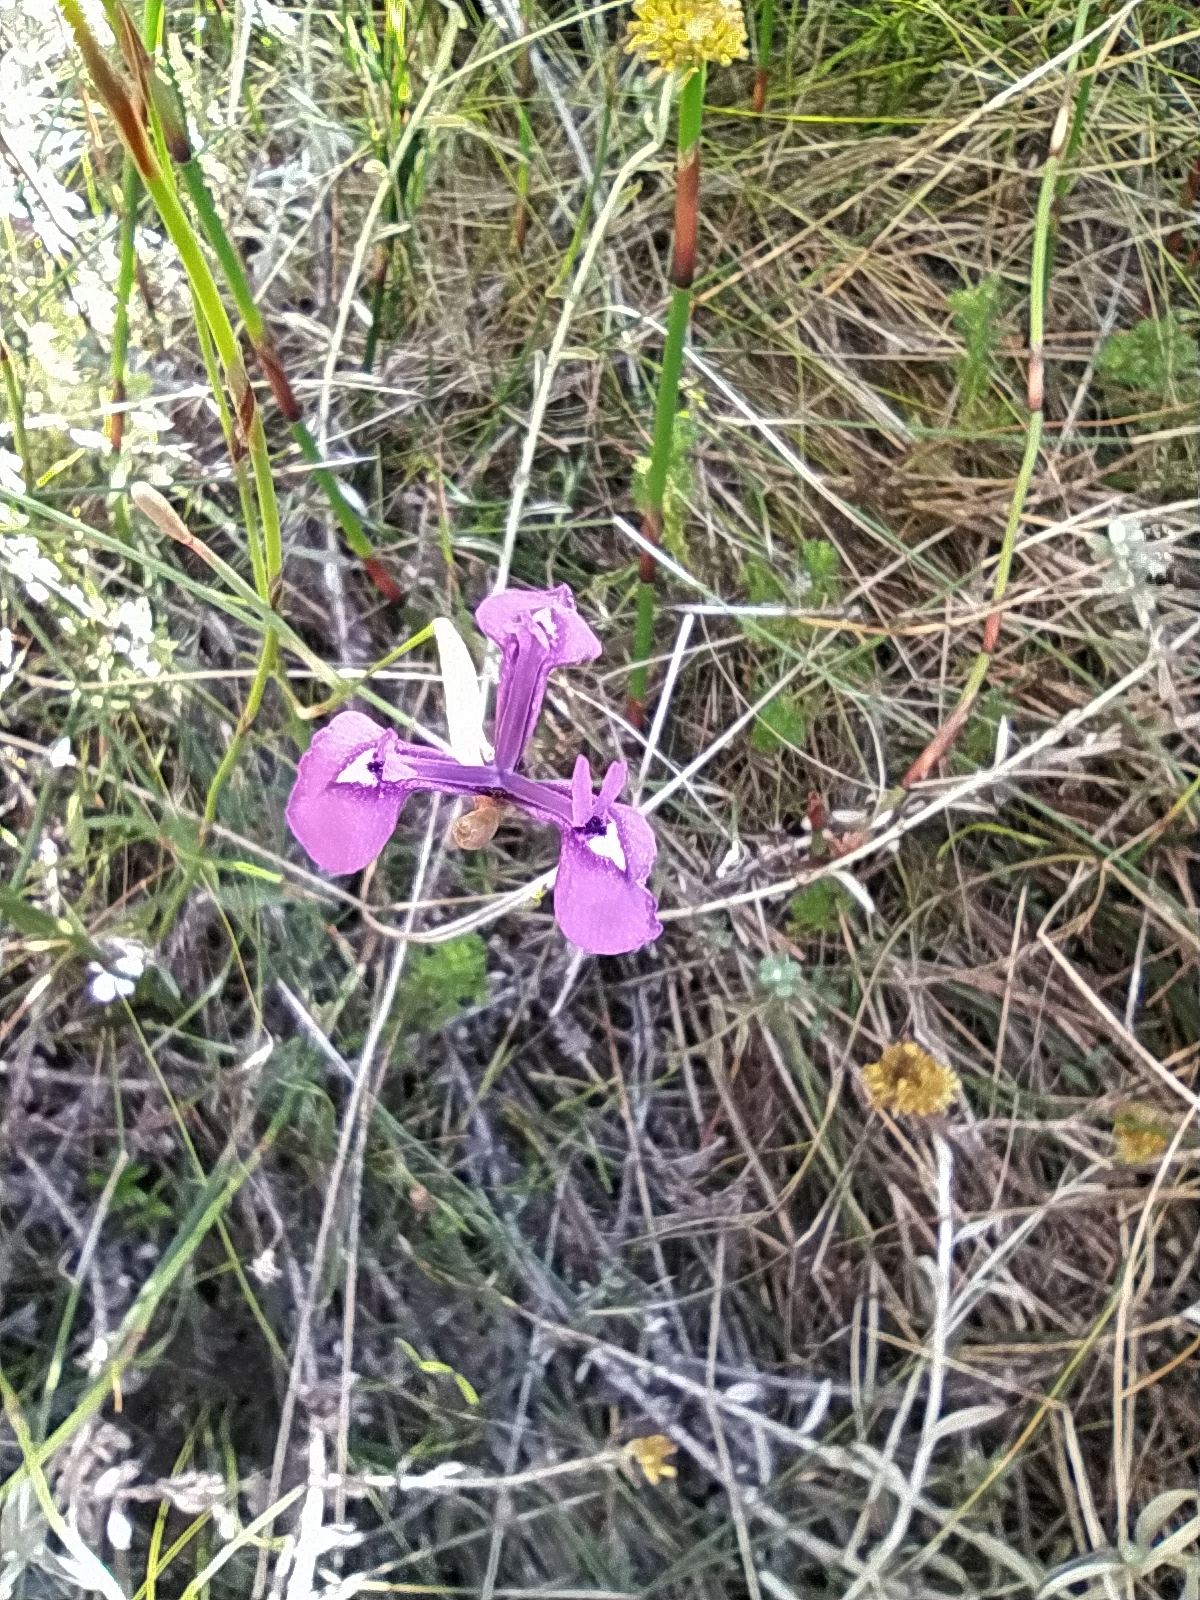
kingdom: Plantae
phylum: Tracheophyta
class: Liliopsida
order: Asparagales
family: Iridaceae
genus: Moraea
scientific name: Moraea tripetala
